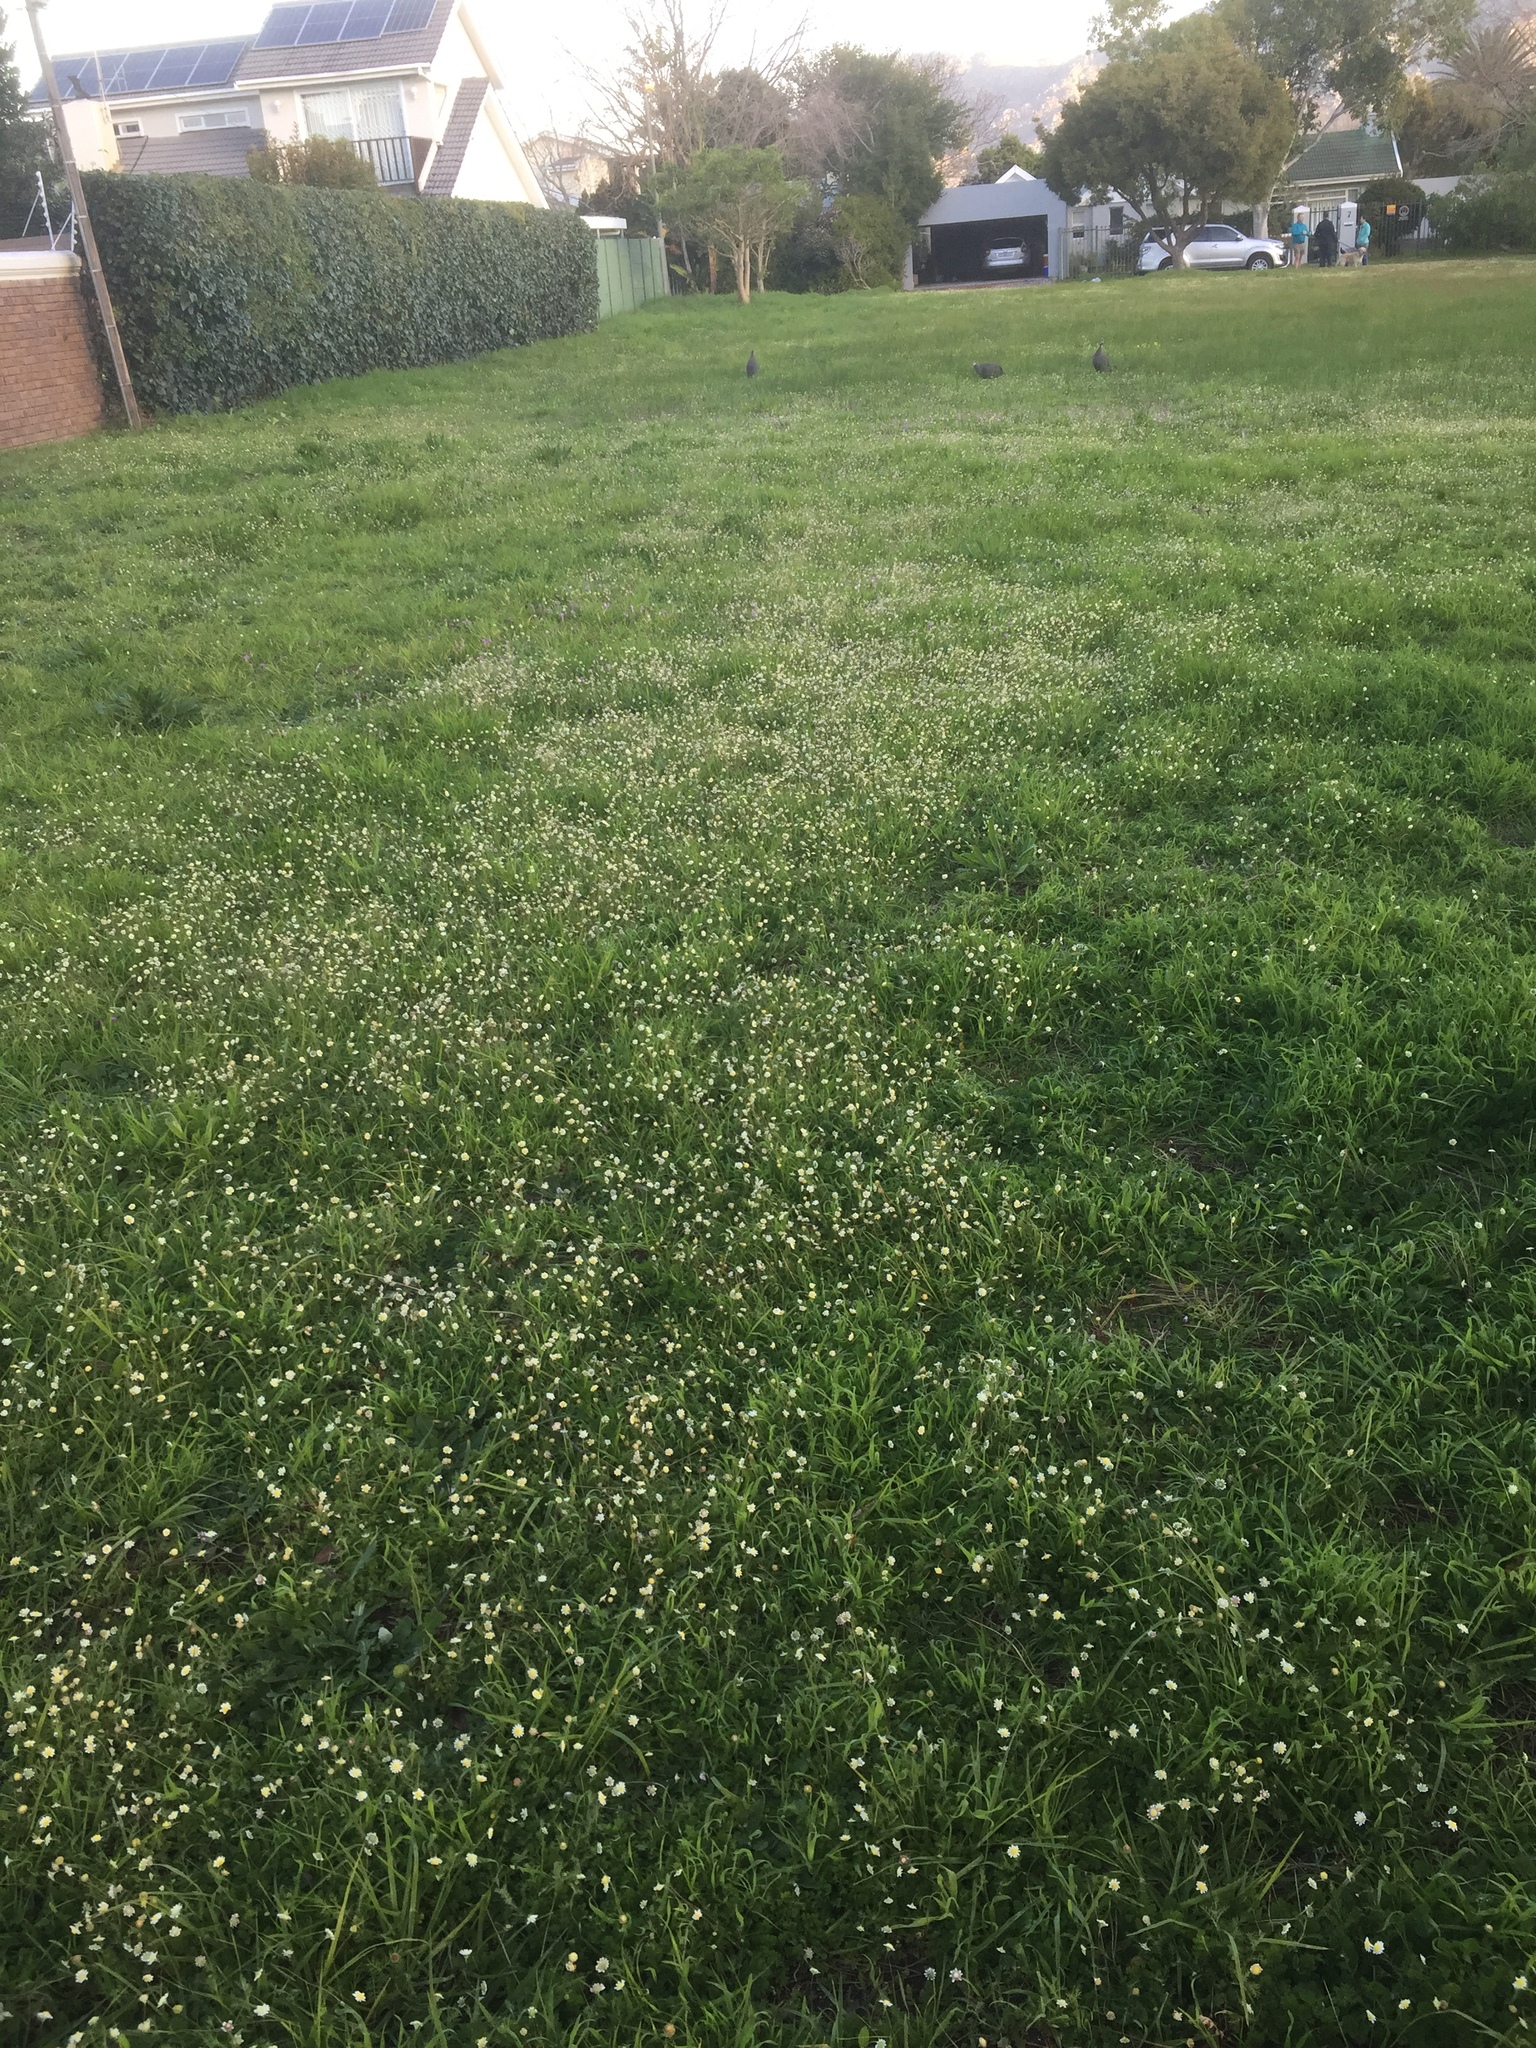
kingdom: Plantae
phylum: Tracheophyta
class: Magnoliopsida
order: Asterales
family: Asteraceae
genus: Cotula
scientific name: Cotula turbinata
